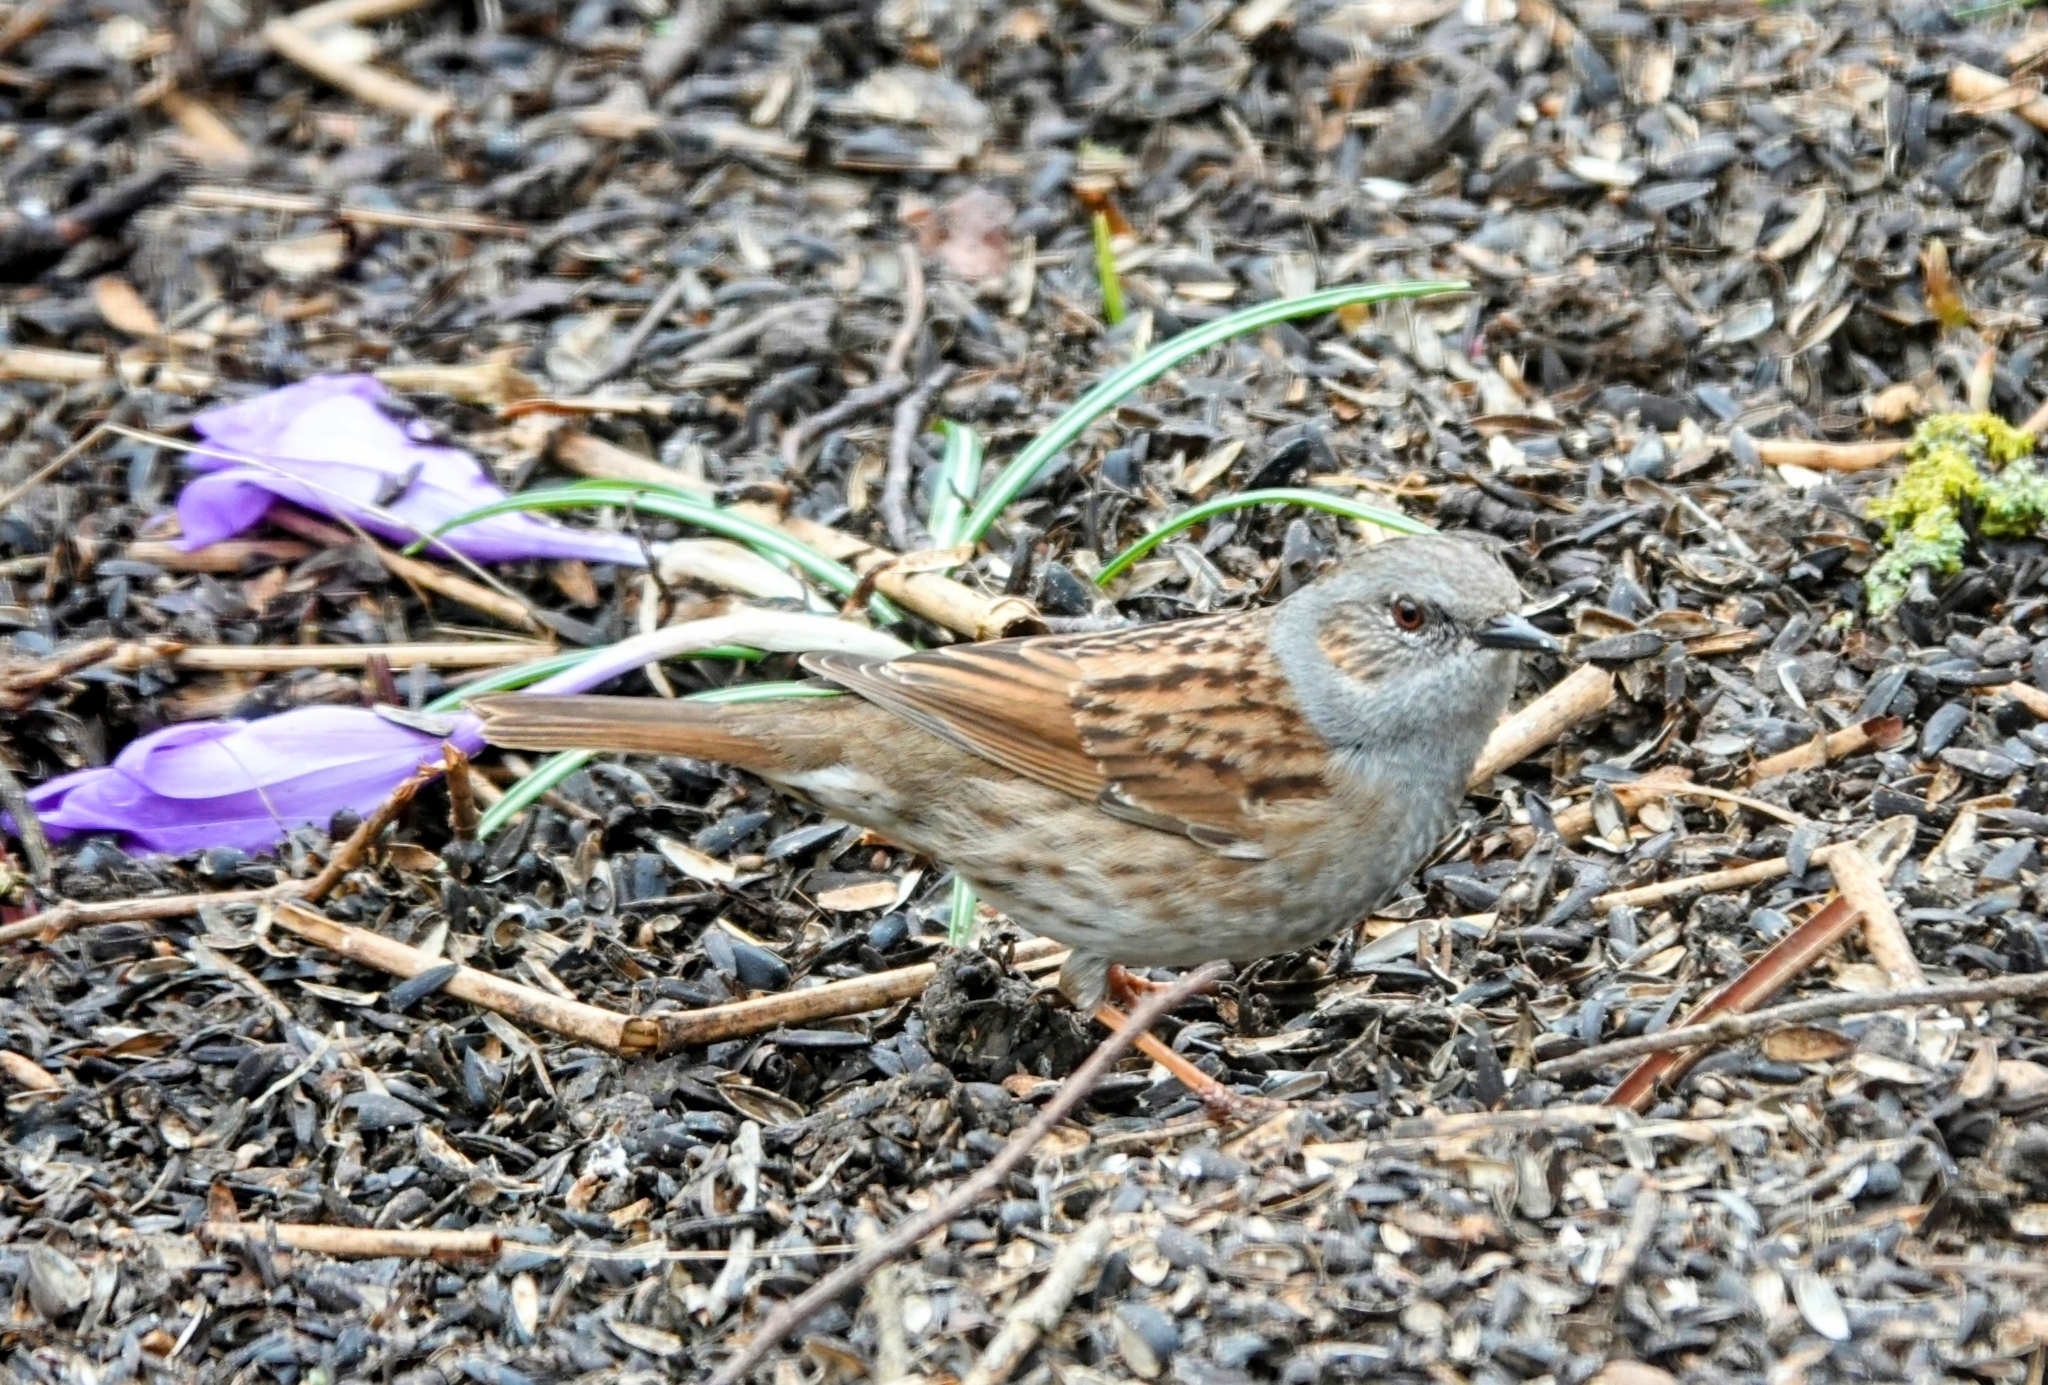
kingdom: Animalia
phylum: Chordata
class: Aves
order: Passeriformes
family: Prunellidae
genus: Prunella
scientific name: Prunella modularis
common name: Dunnock
